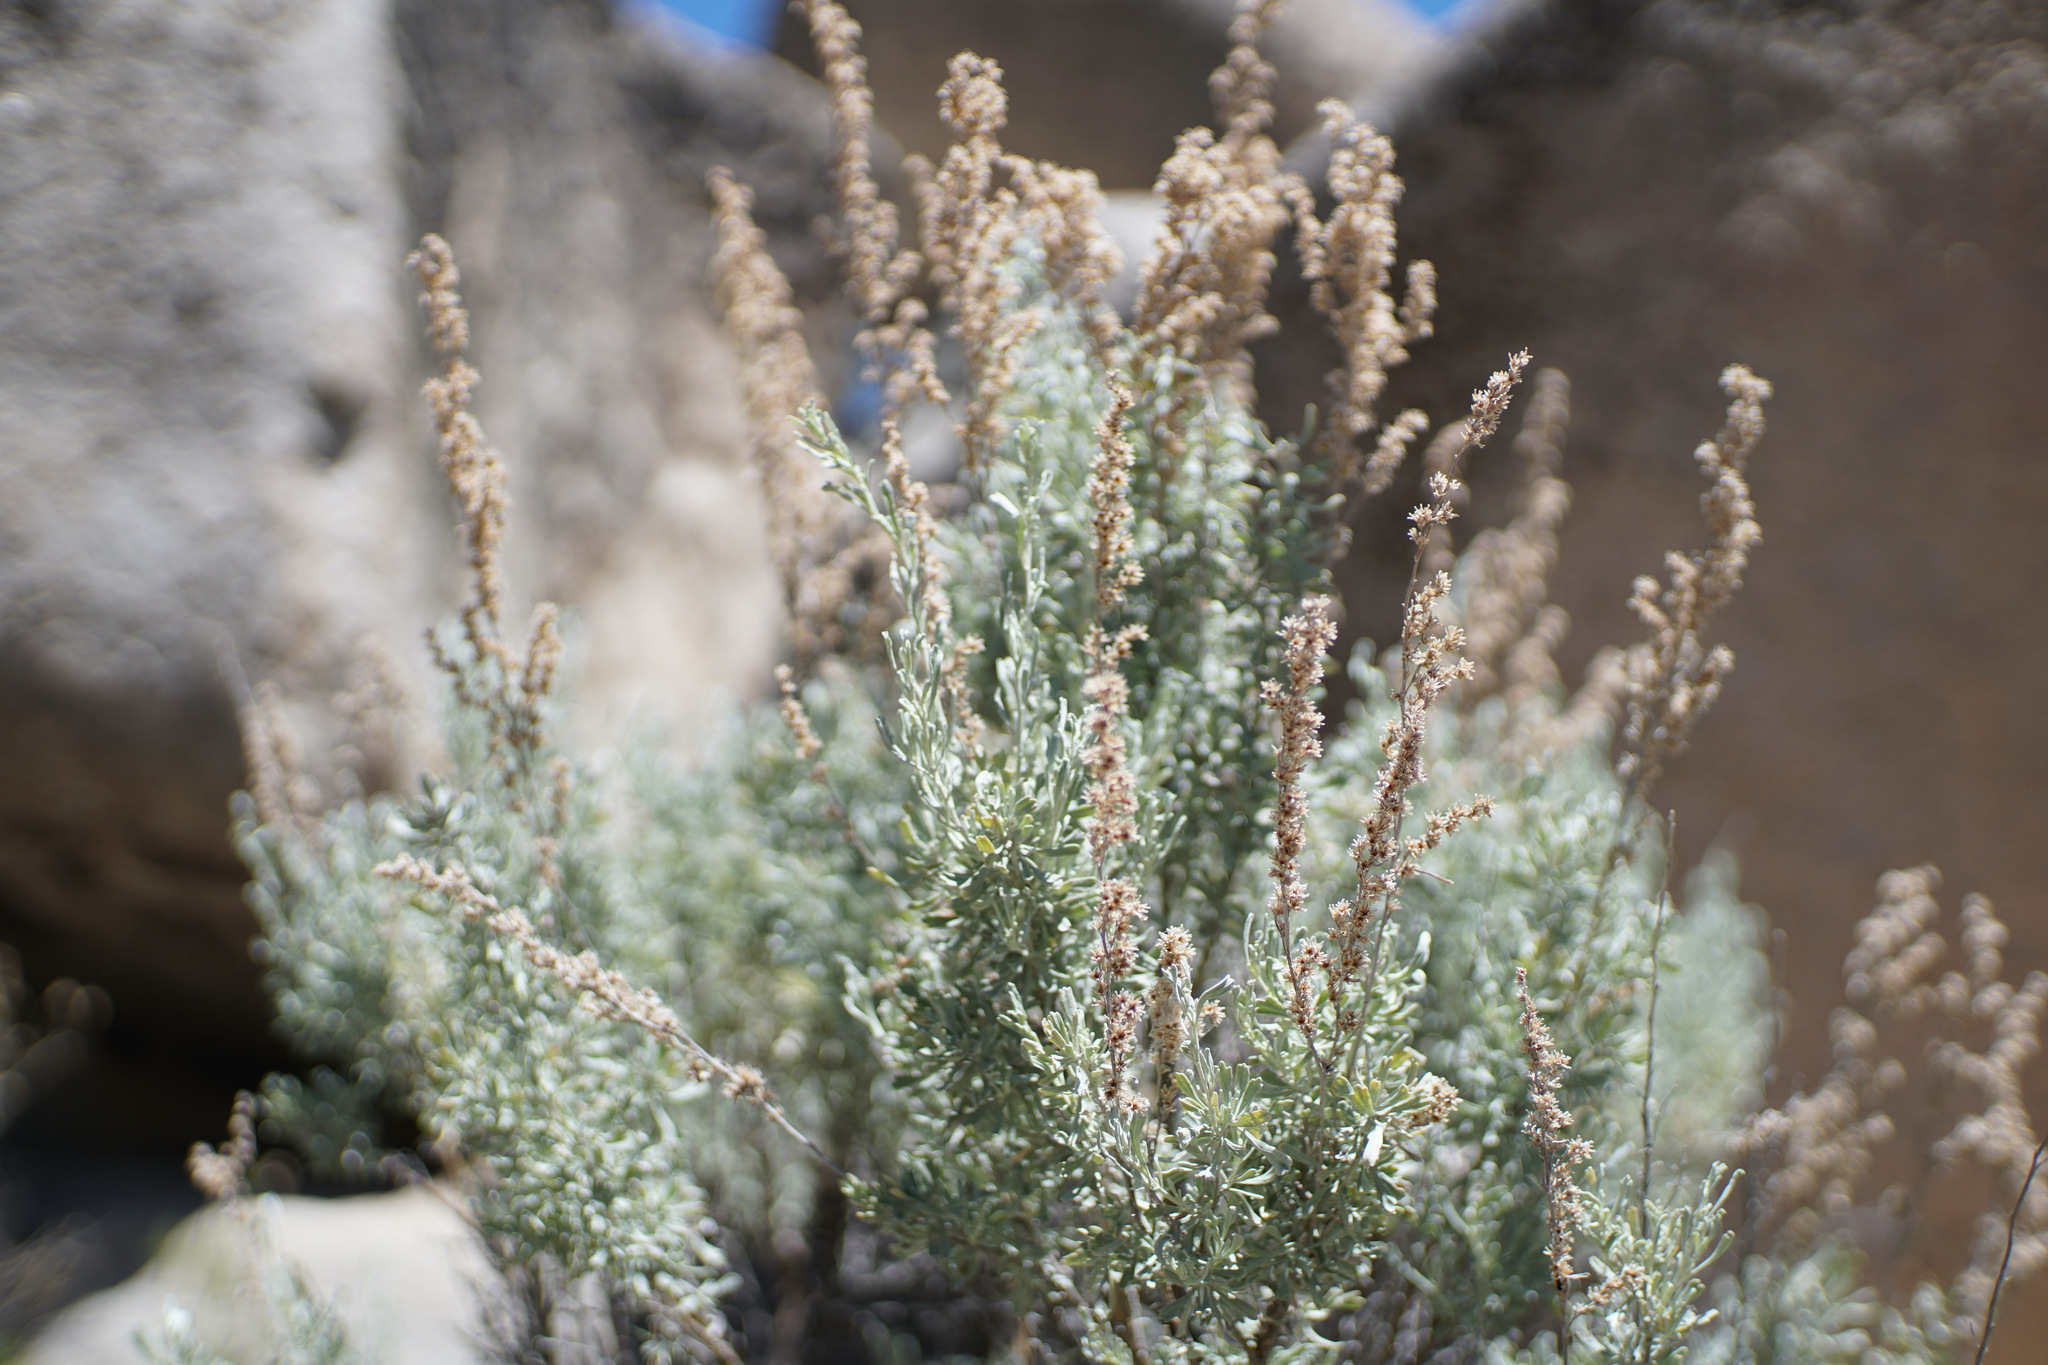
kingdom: Plantae
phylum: Tracheophyta
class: Magnoliopsida
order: Asterales
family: Asteraceae
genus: Artemisia
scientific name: Artemisia tridentata
